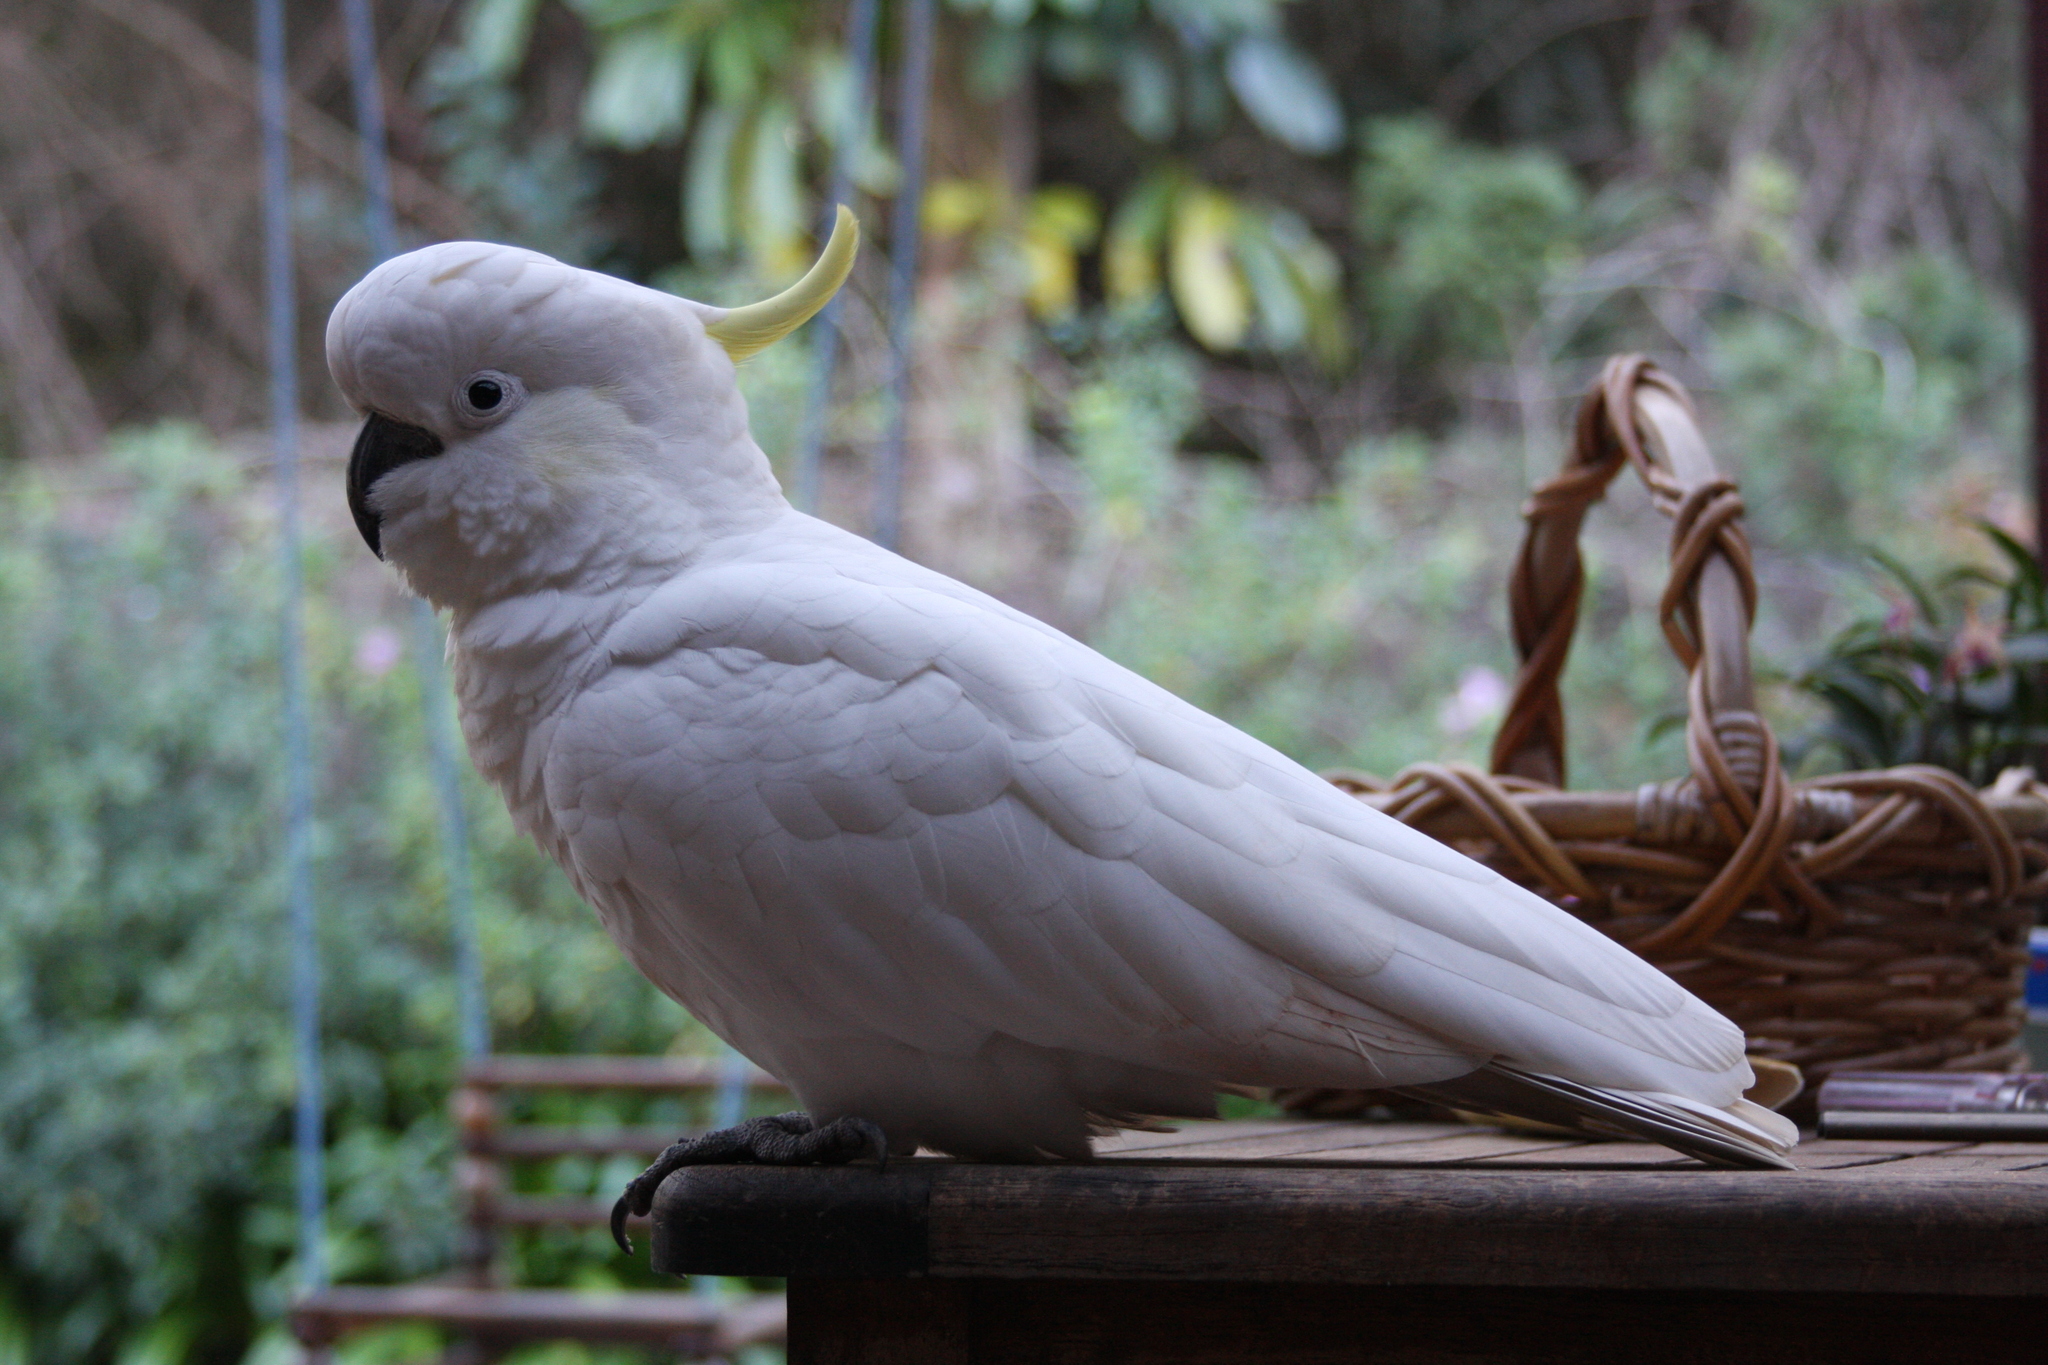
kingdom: Animalia
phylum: Chordata
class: Aves
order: Psittaciformes
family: Psittacidae
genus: Cacatua
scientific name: Cacatua galerita
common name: Sulphur-crested cockatoo
